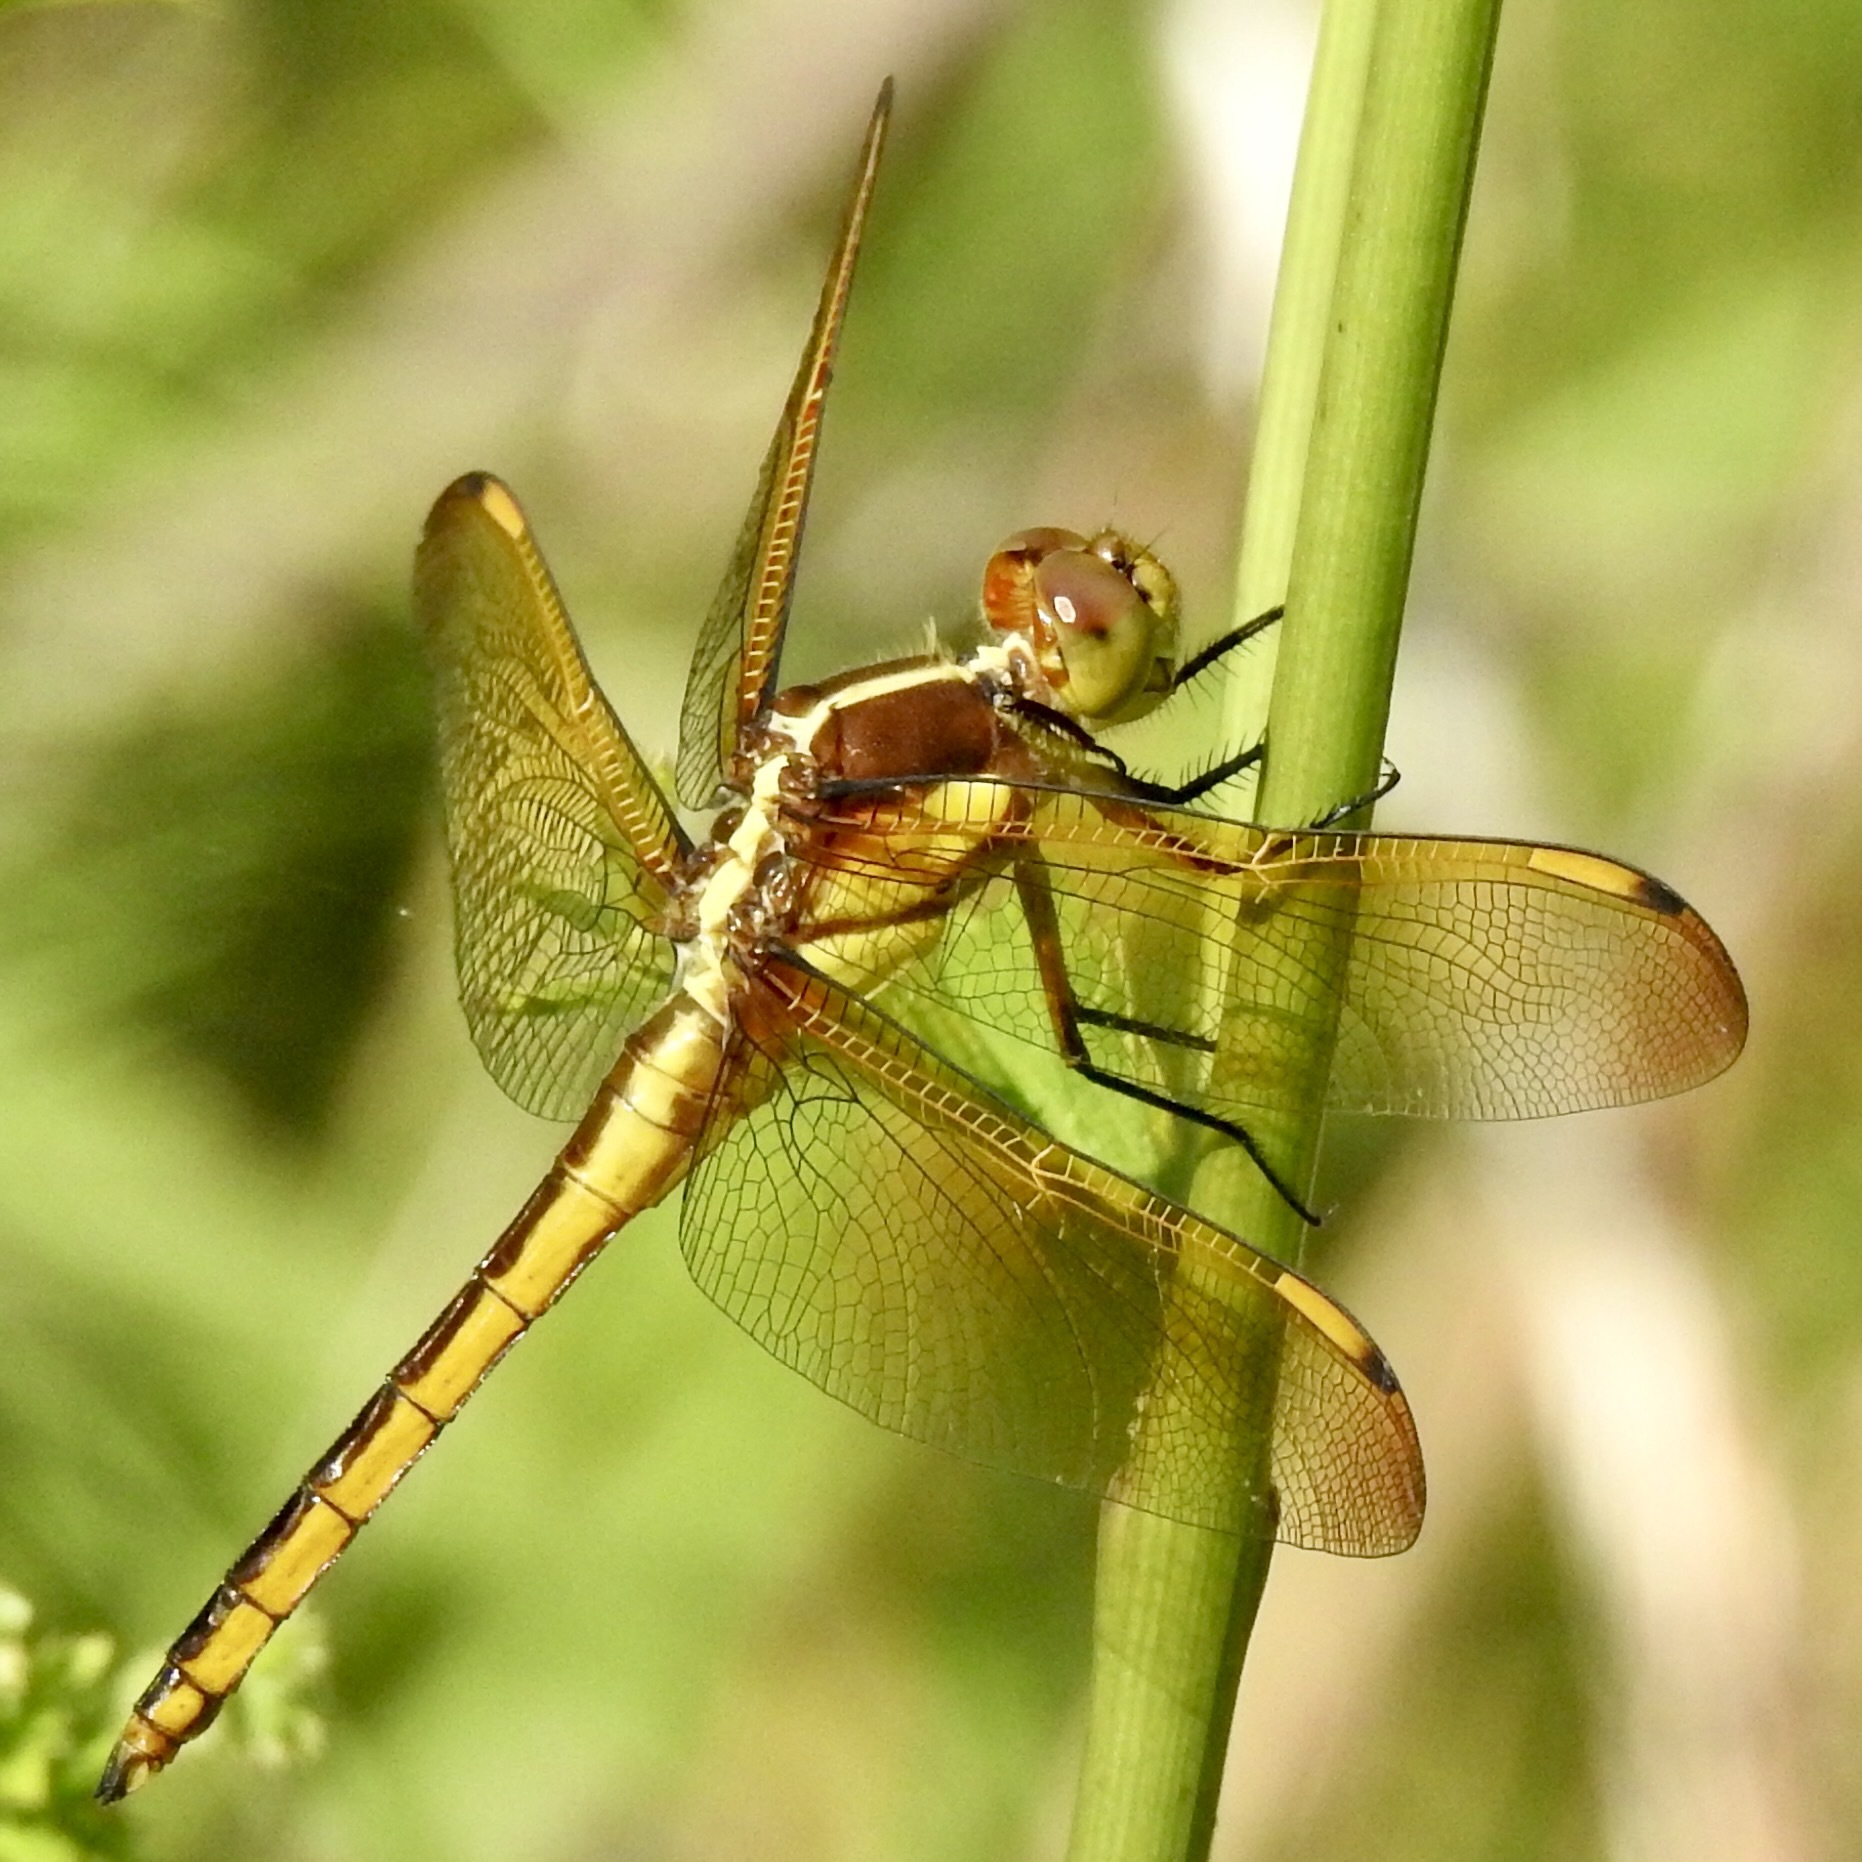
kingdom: Animalia
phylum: Arthropoda
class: Insecta
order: Odonata
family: Libellulidae
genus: Libellula
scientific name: Libellula flavida
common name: Yellow-sided skimmer
